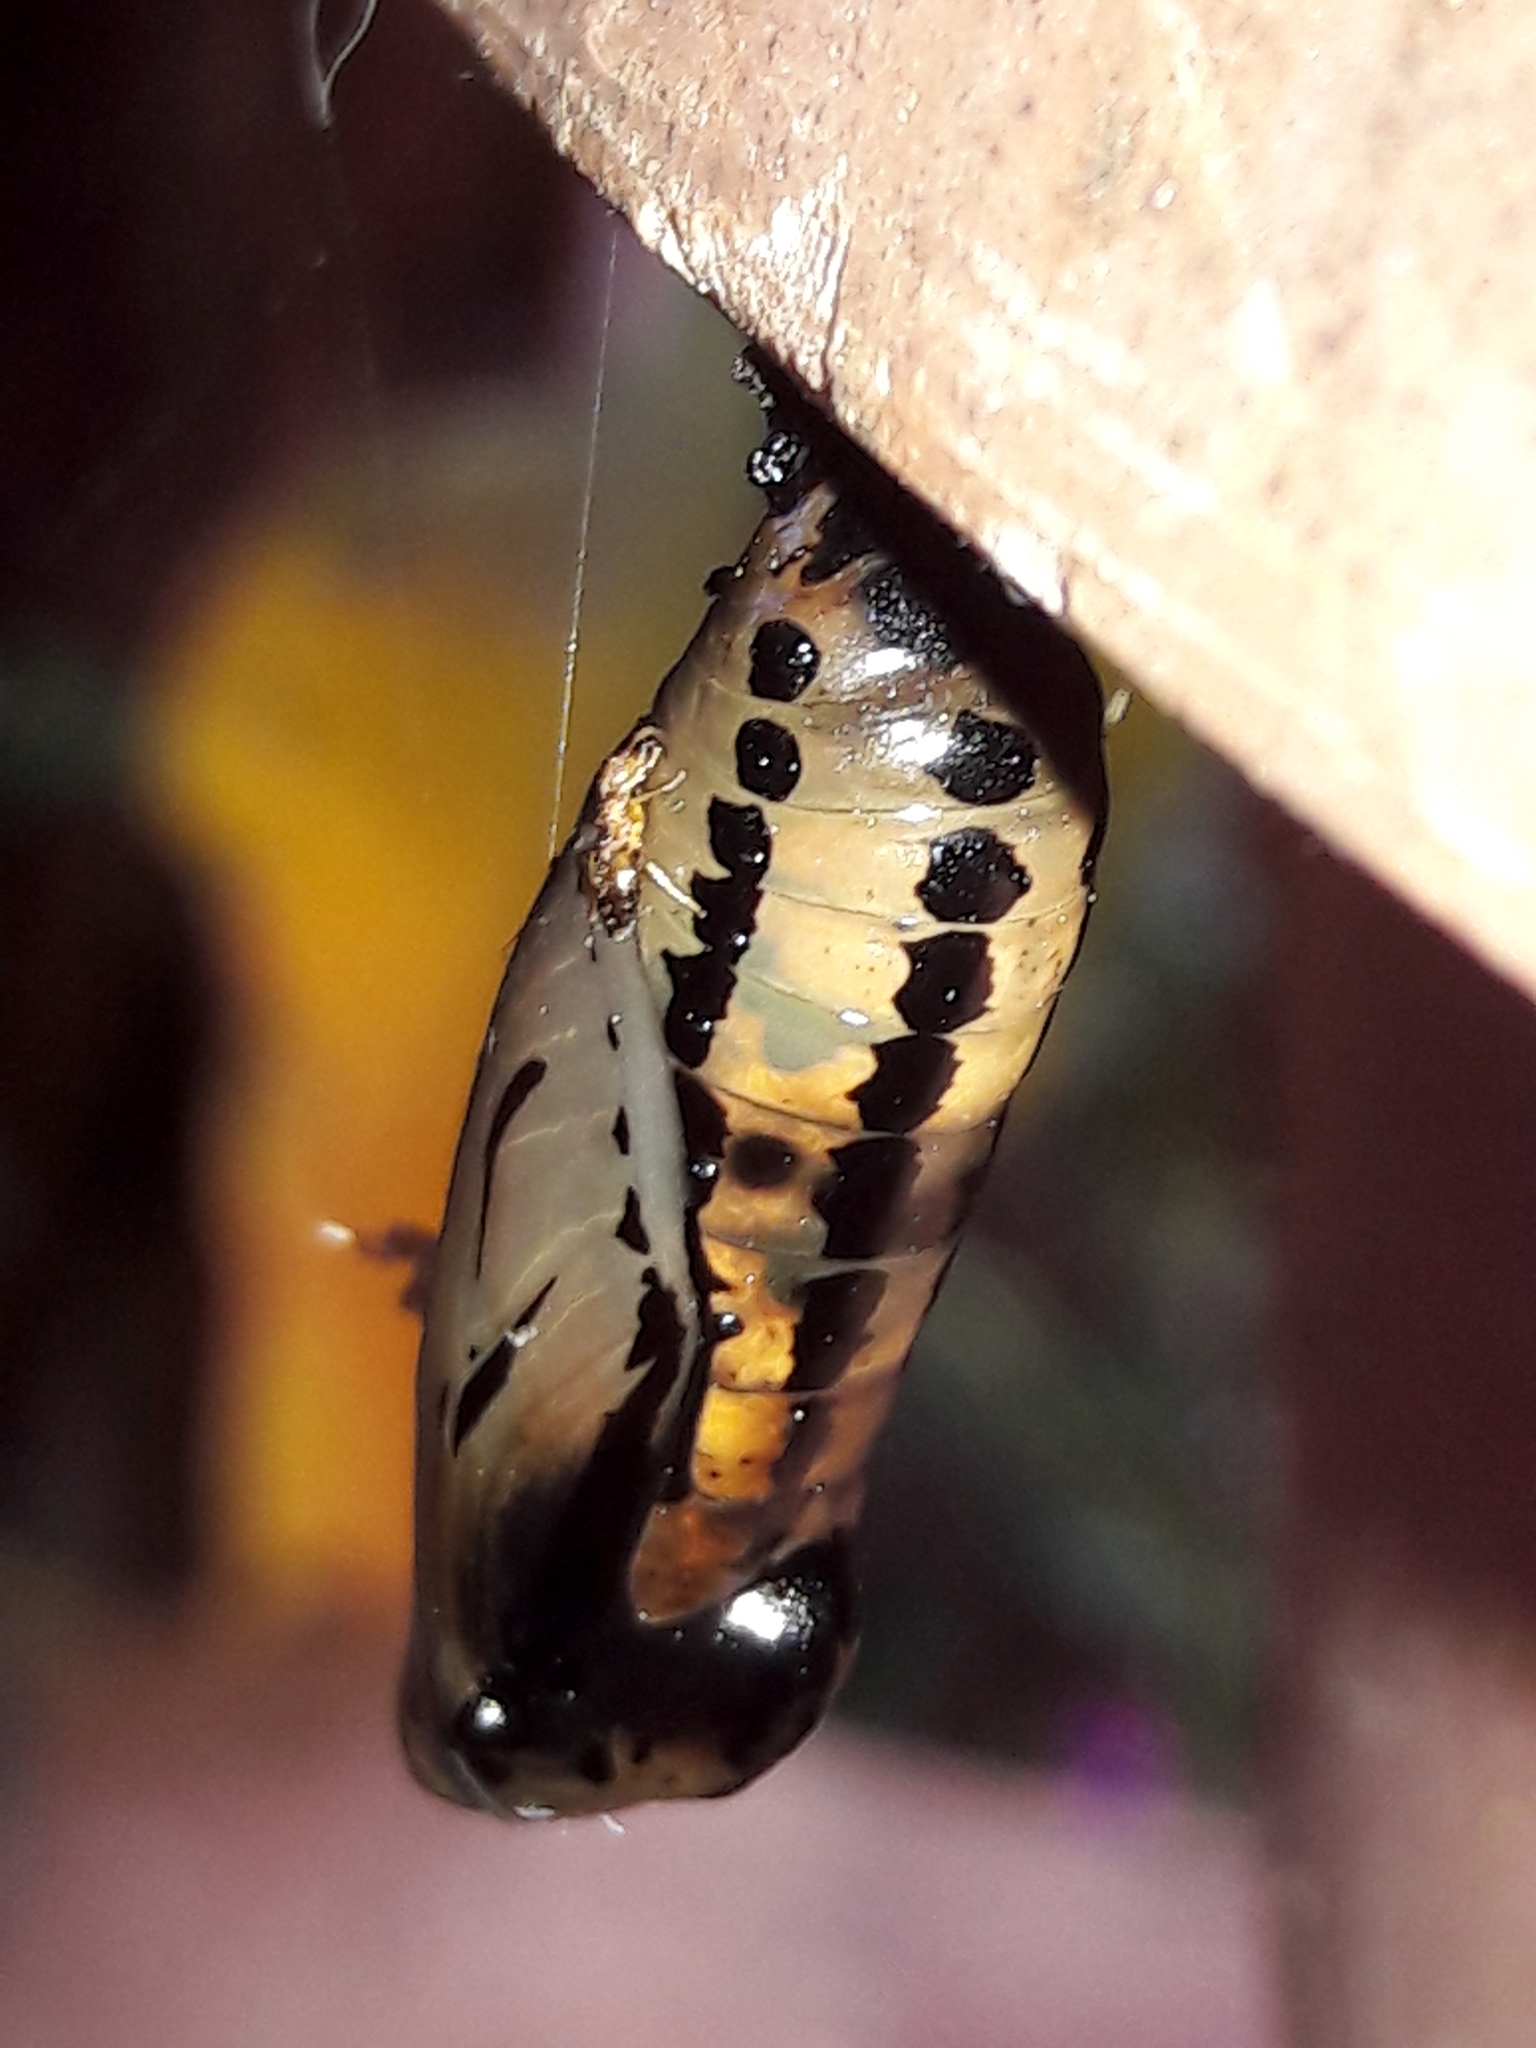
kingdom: Animalia
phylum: Arthropoda
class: Insecta
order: Lepidoptera
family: Nymphalidae
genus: Methona
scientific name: Methona themisto
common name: Themisto amberwing
